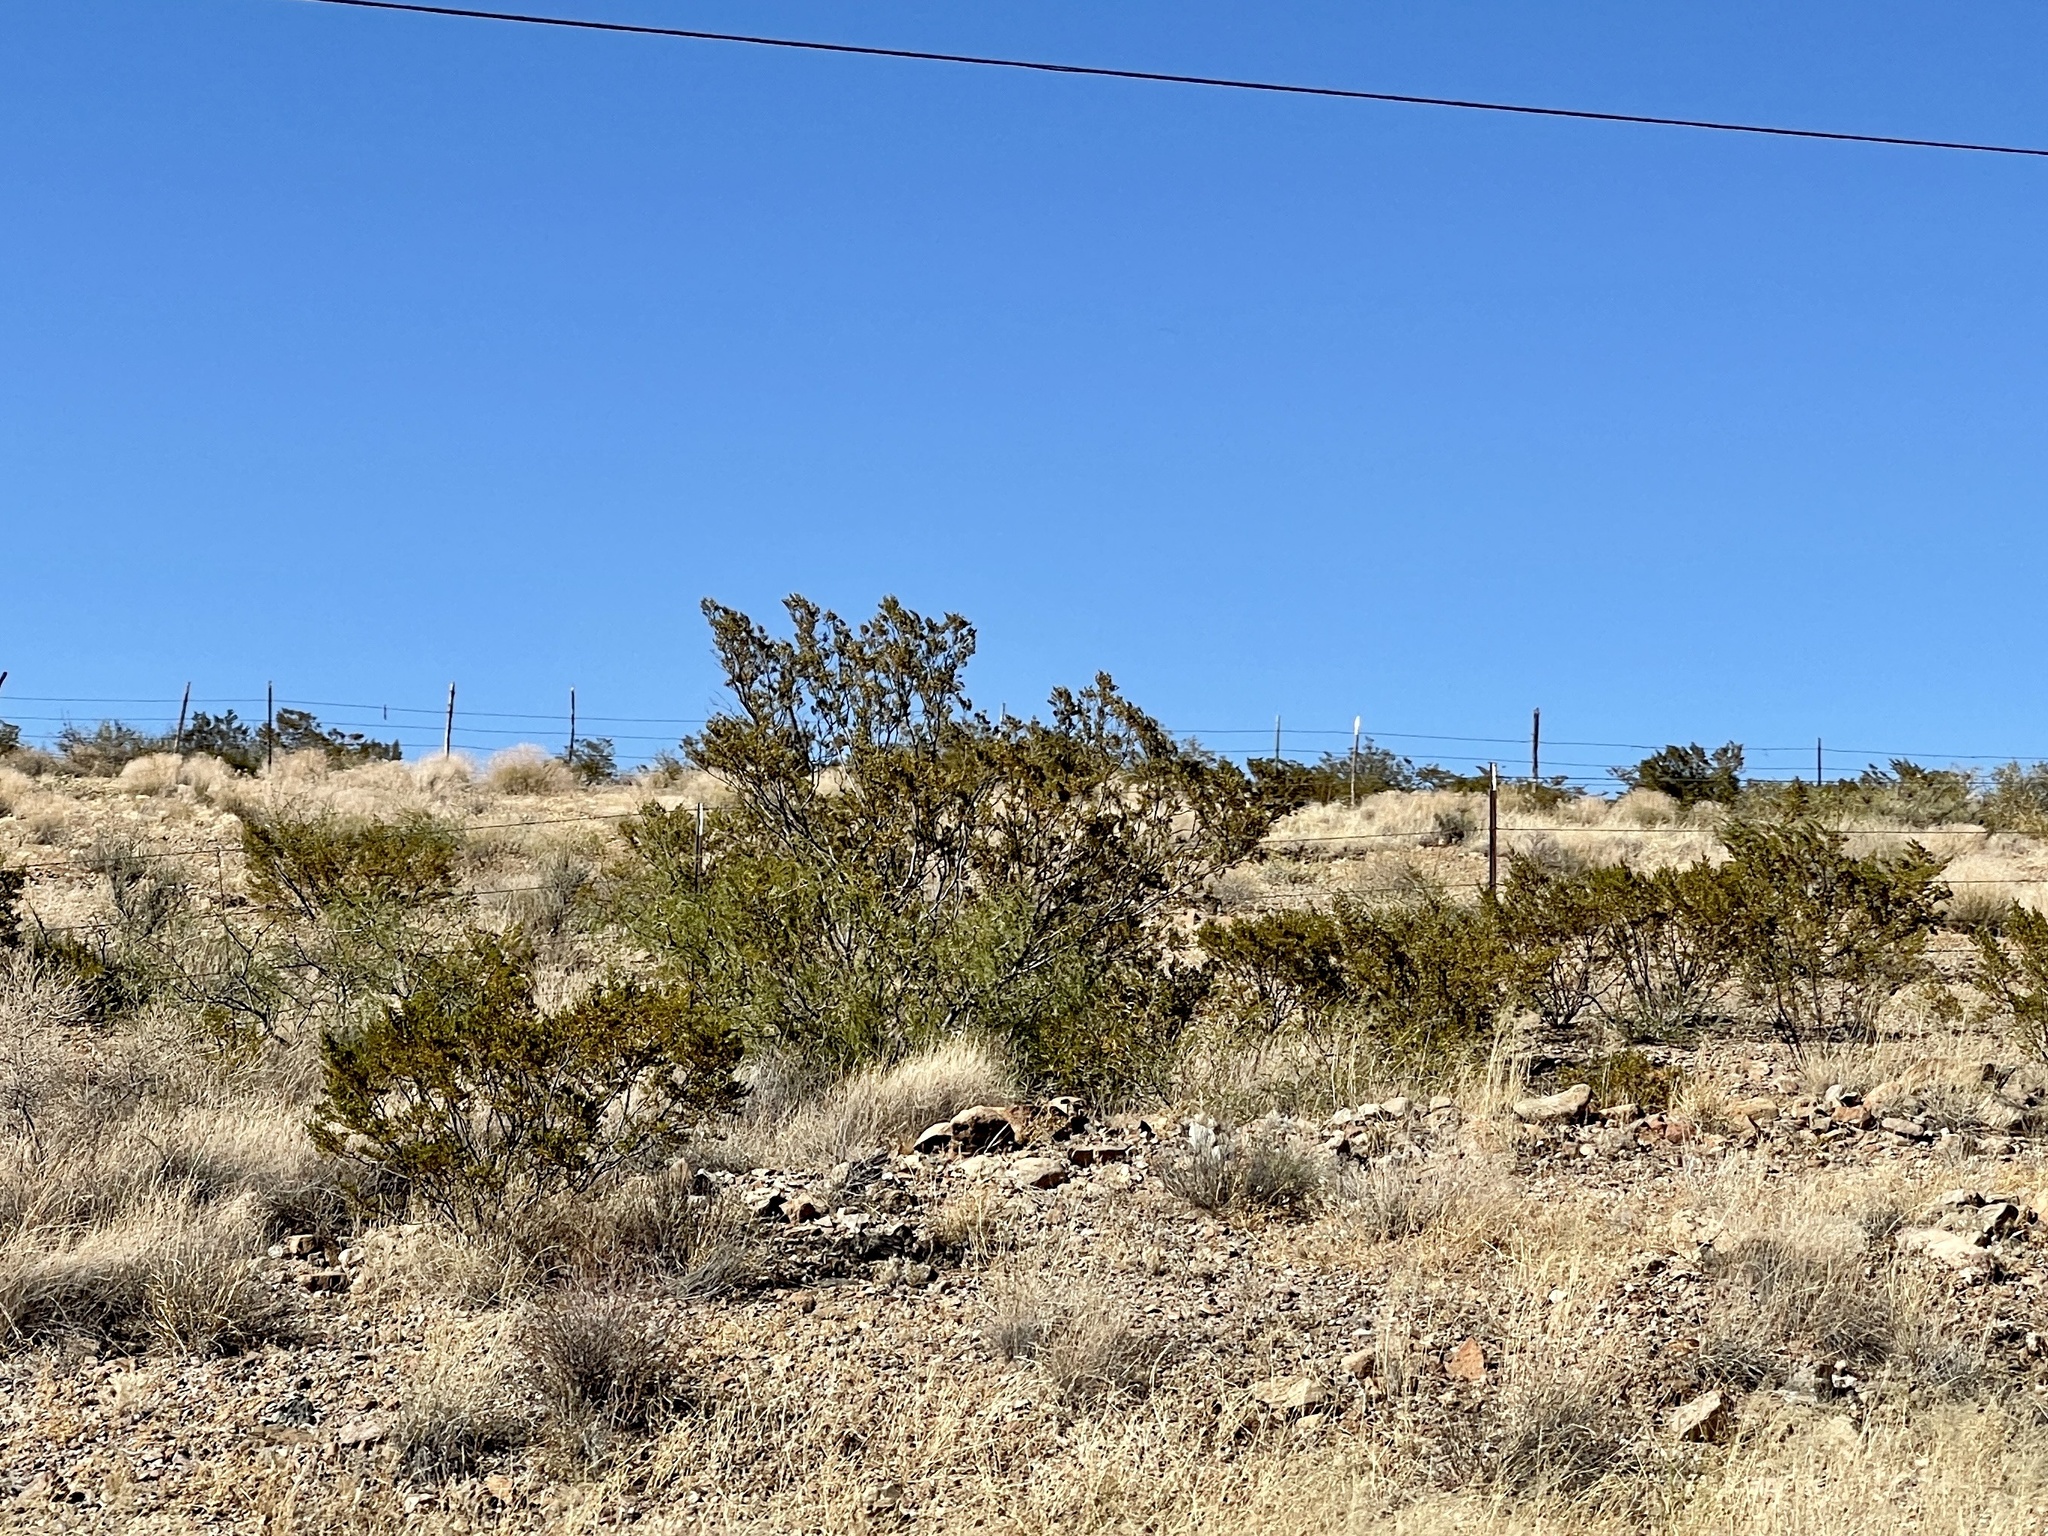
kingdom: Plantae
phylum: Tracheophyta
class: Magnoliopsida
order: Zygophyllales
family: Zygophyllaceae
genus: Larrea
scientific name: Larrea tridentata
